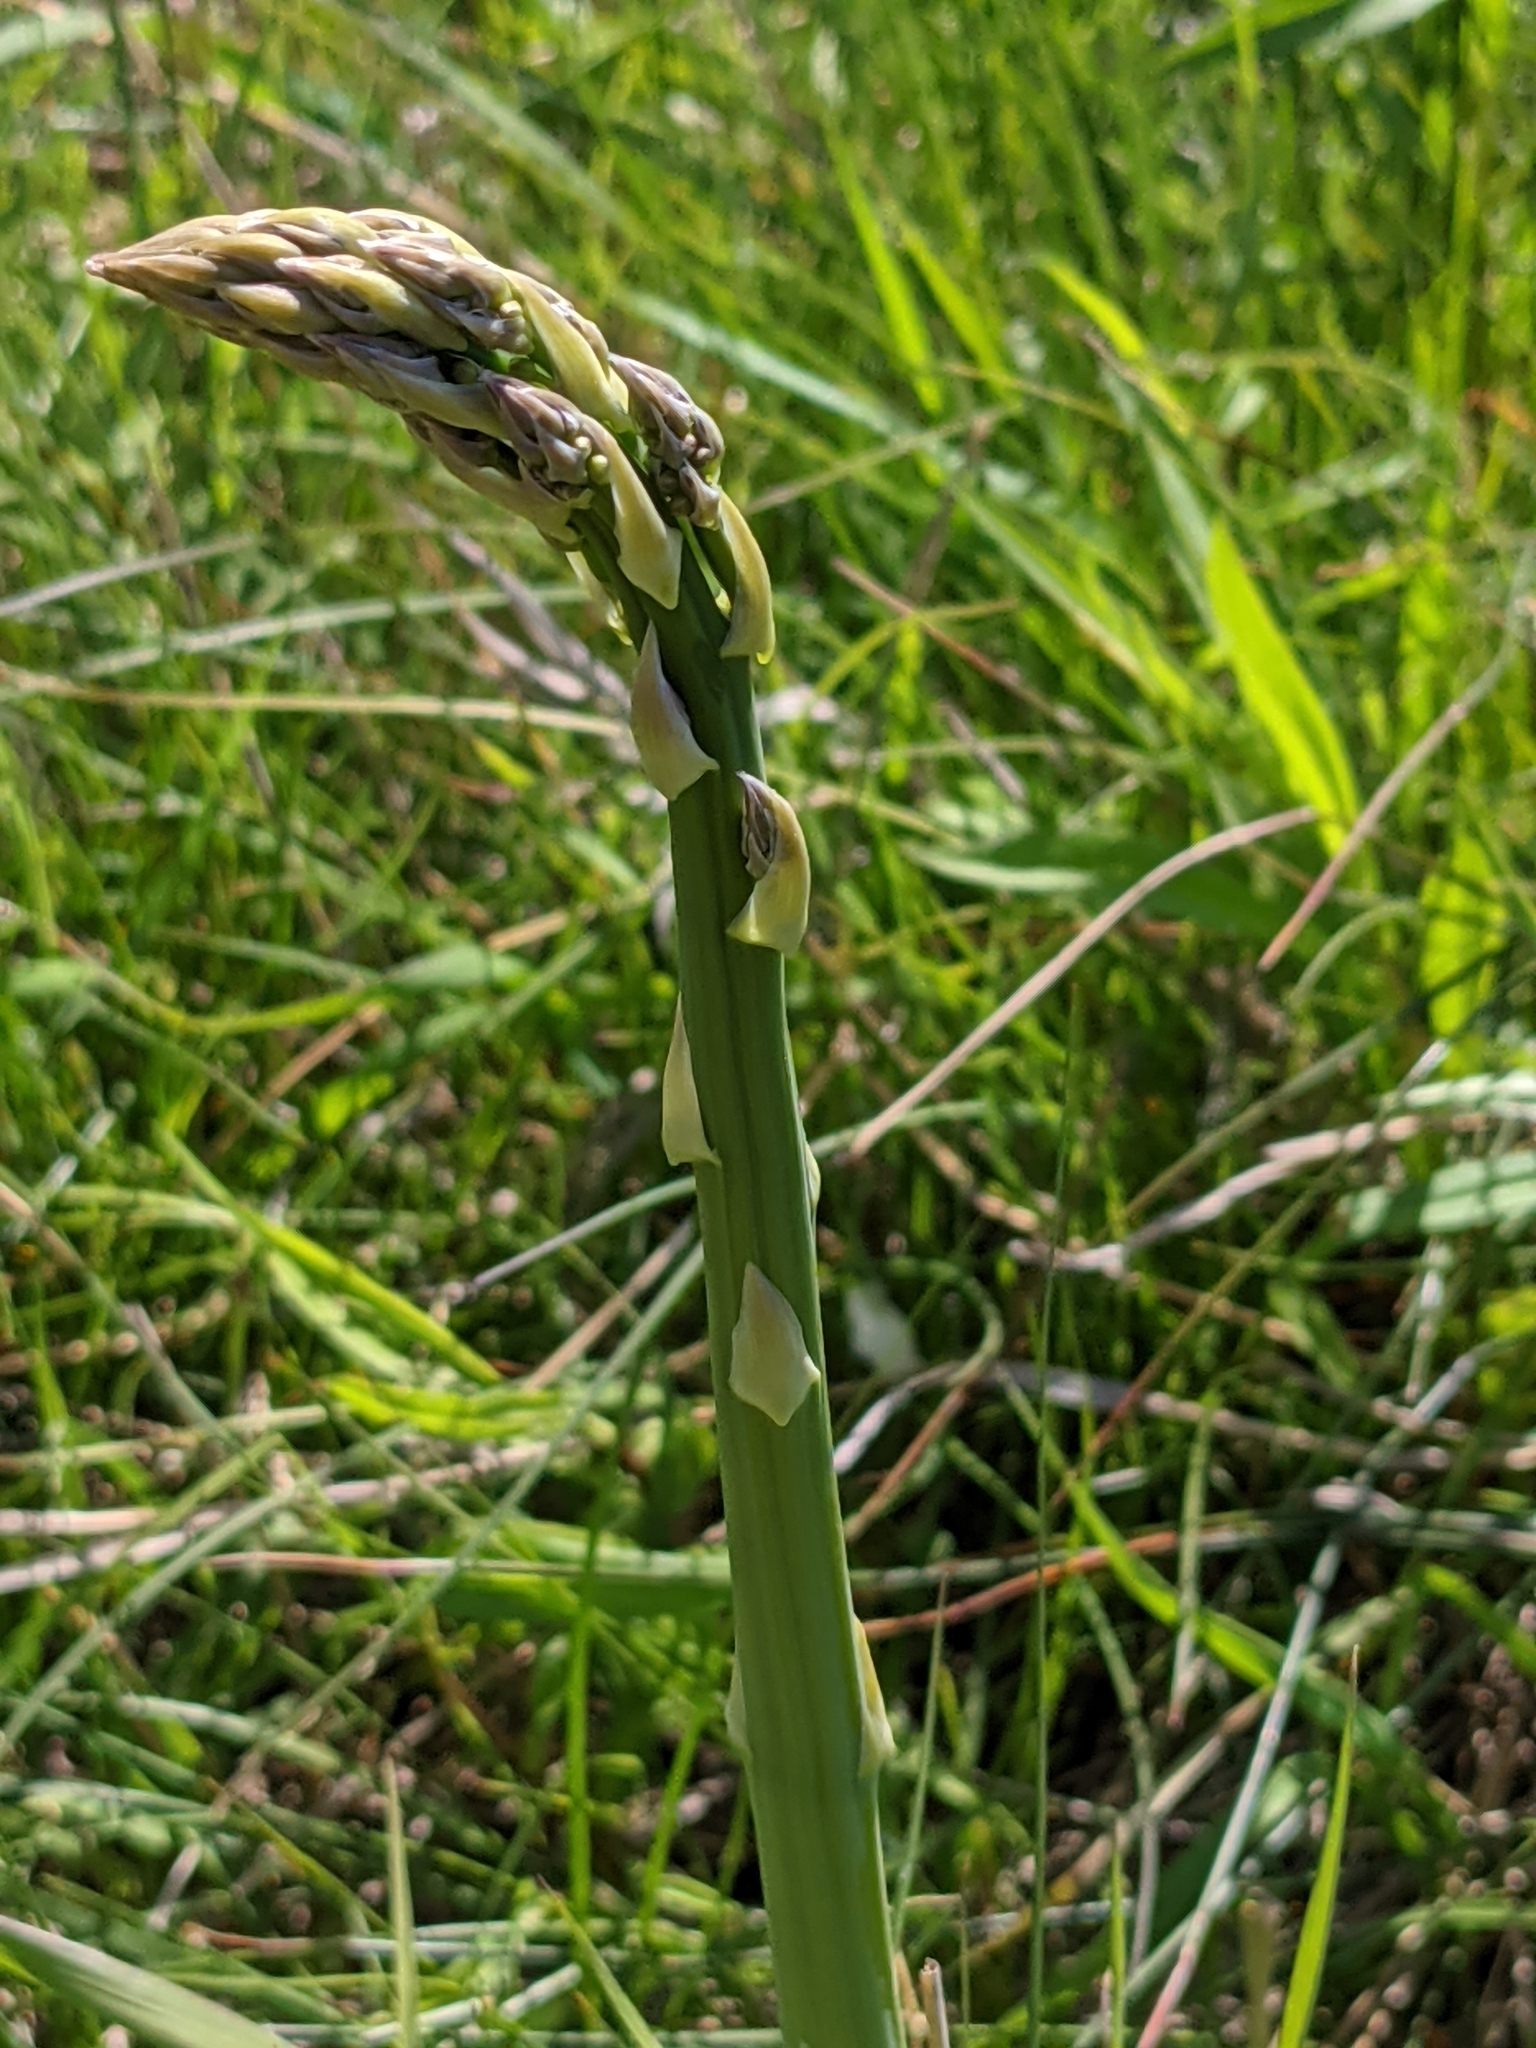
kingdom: Plantae
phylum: Tracheophyta
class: Liliopsida
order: Asparagales
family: Asparagaceae
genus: Asparagus
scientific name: Asparagus officinalis
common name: Garden asparagus
